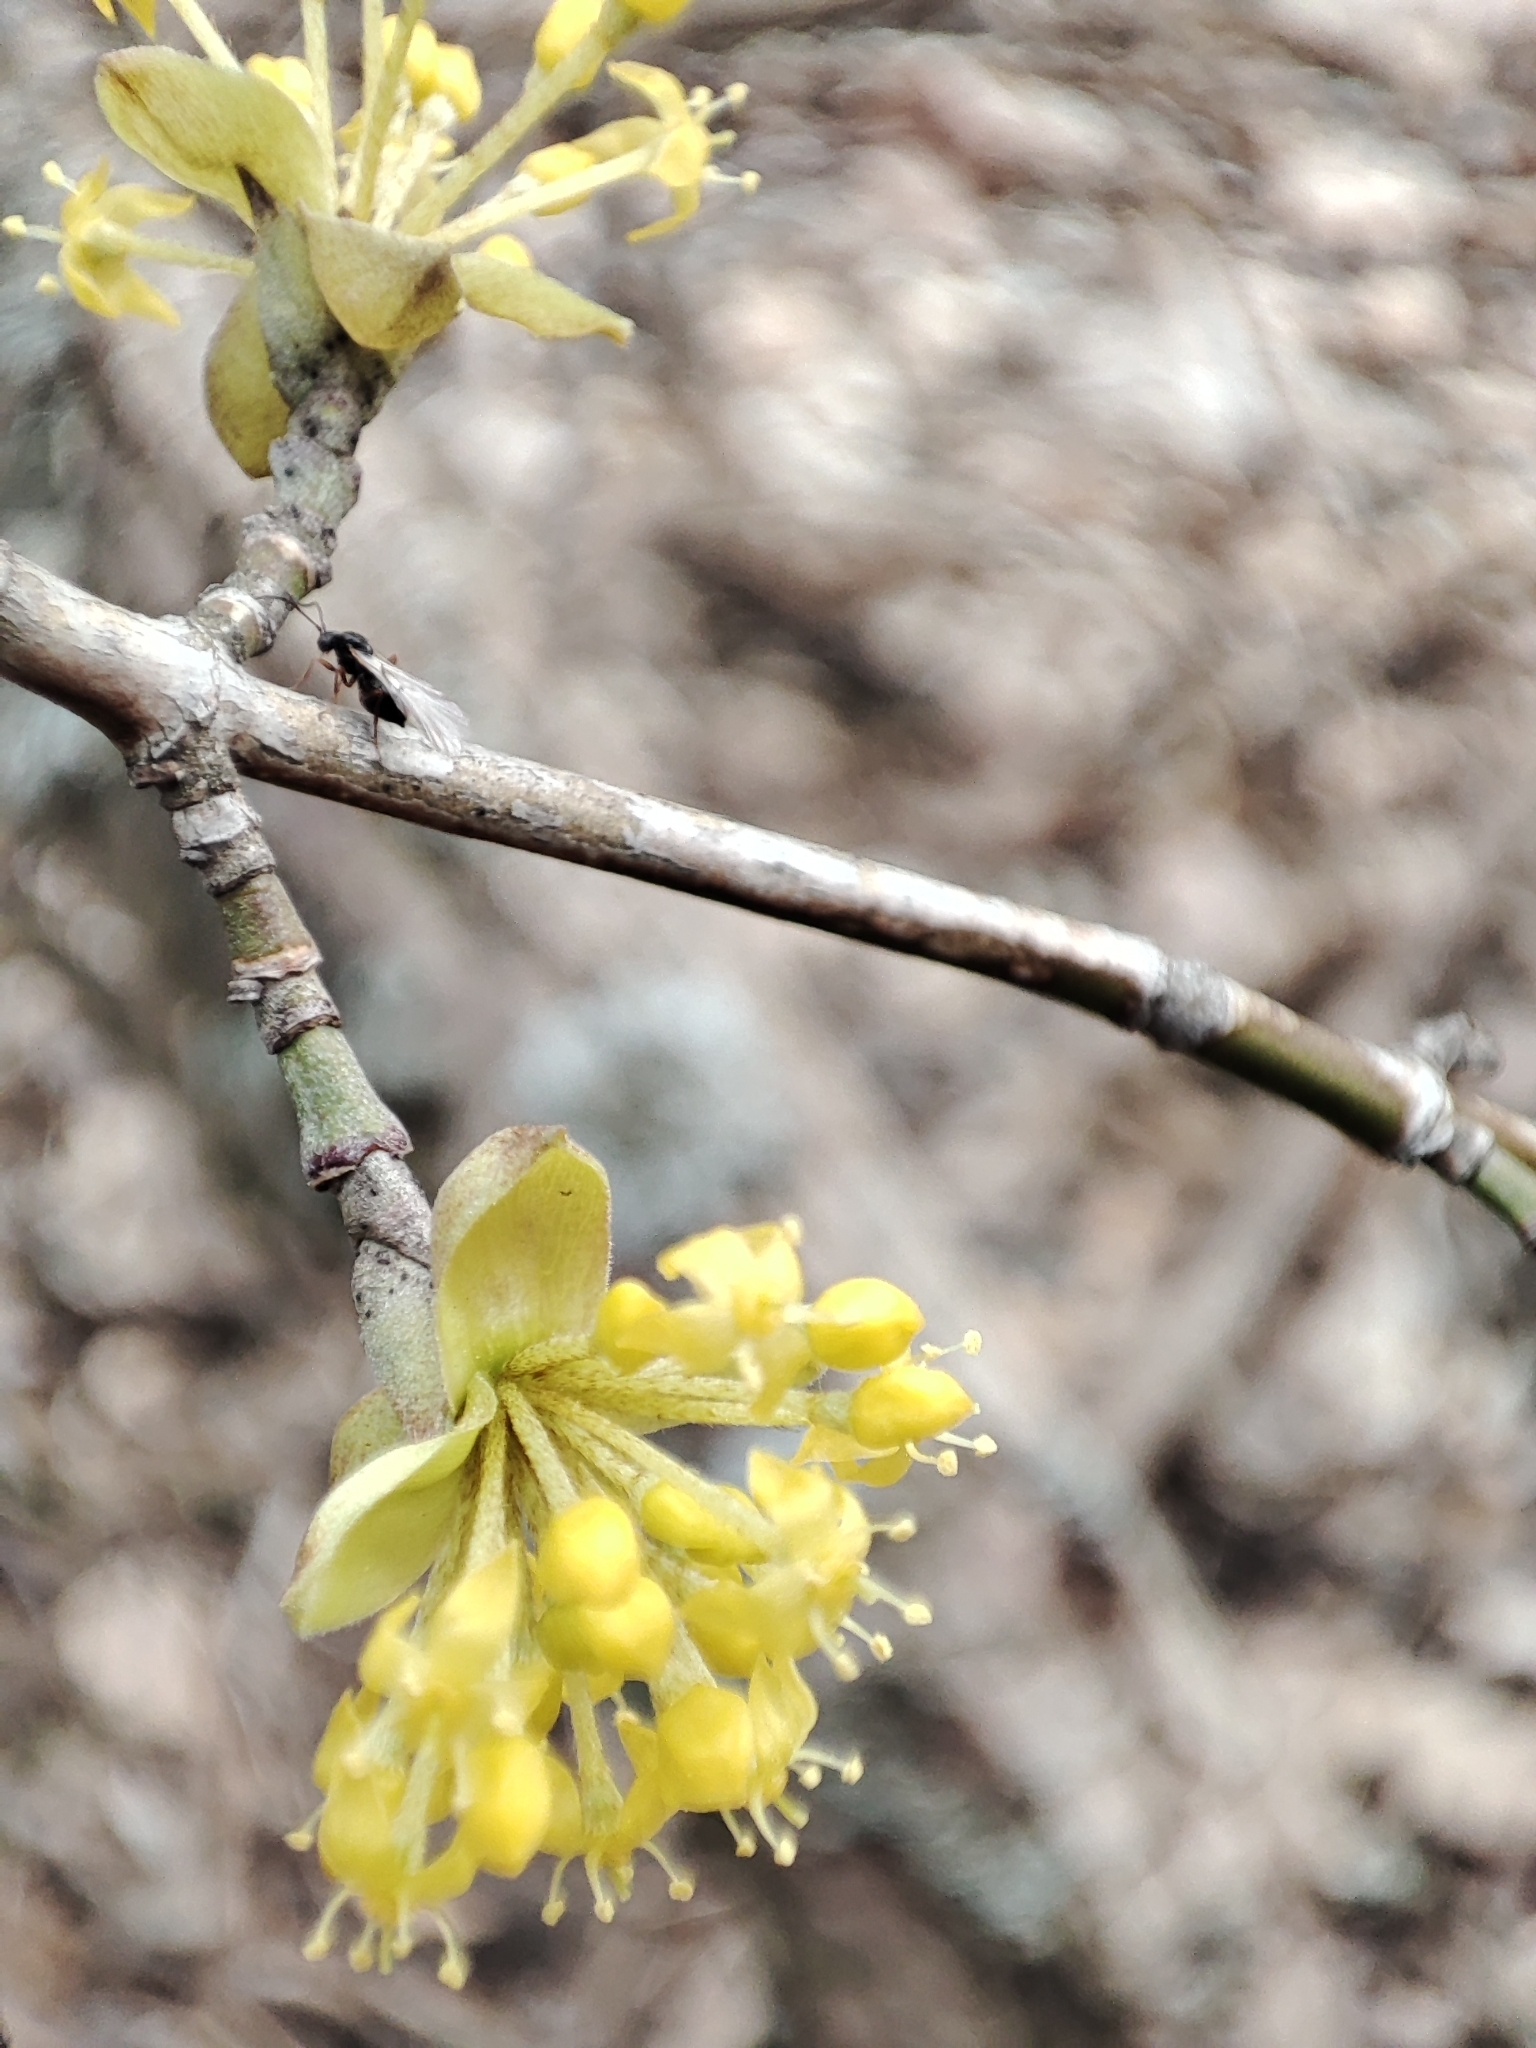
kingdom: Plantae
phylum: Tracheophyta
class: Magnoliopsida
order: Cornales
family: Cornaceae
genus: Cornus
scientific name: Cornus mas
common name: Cornelian-cherry
